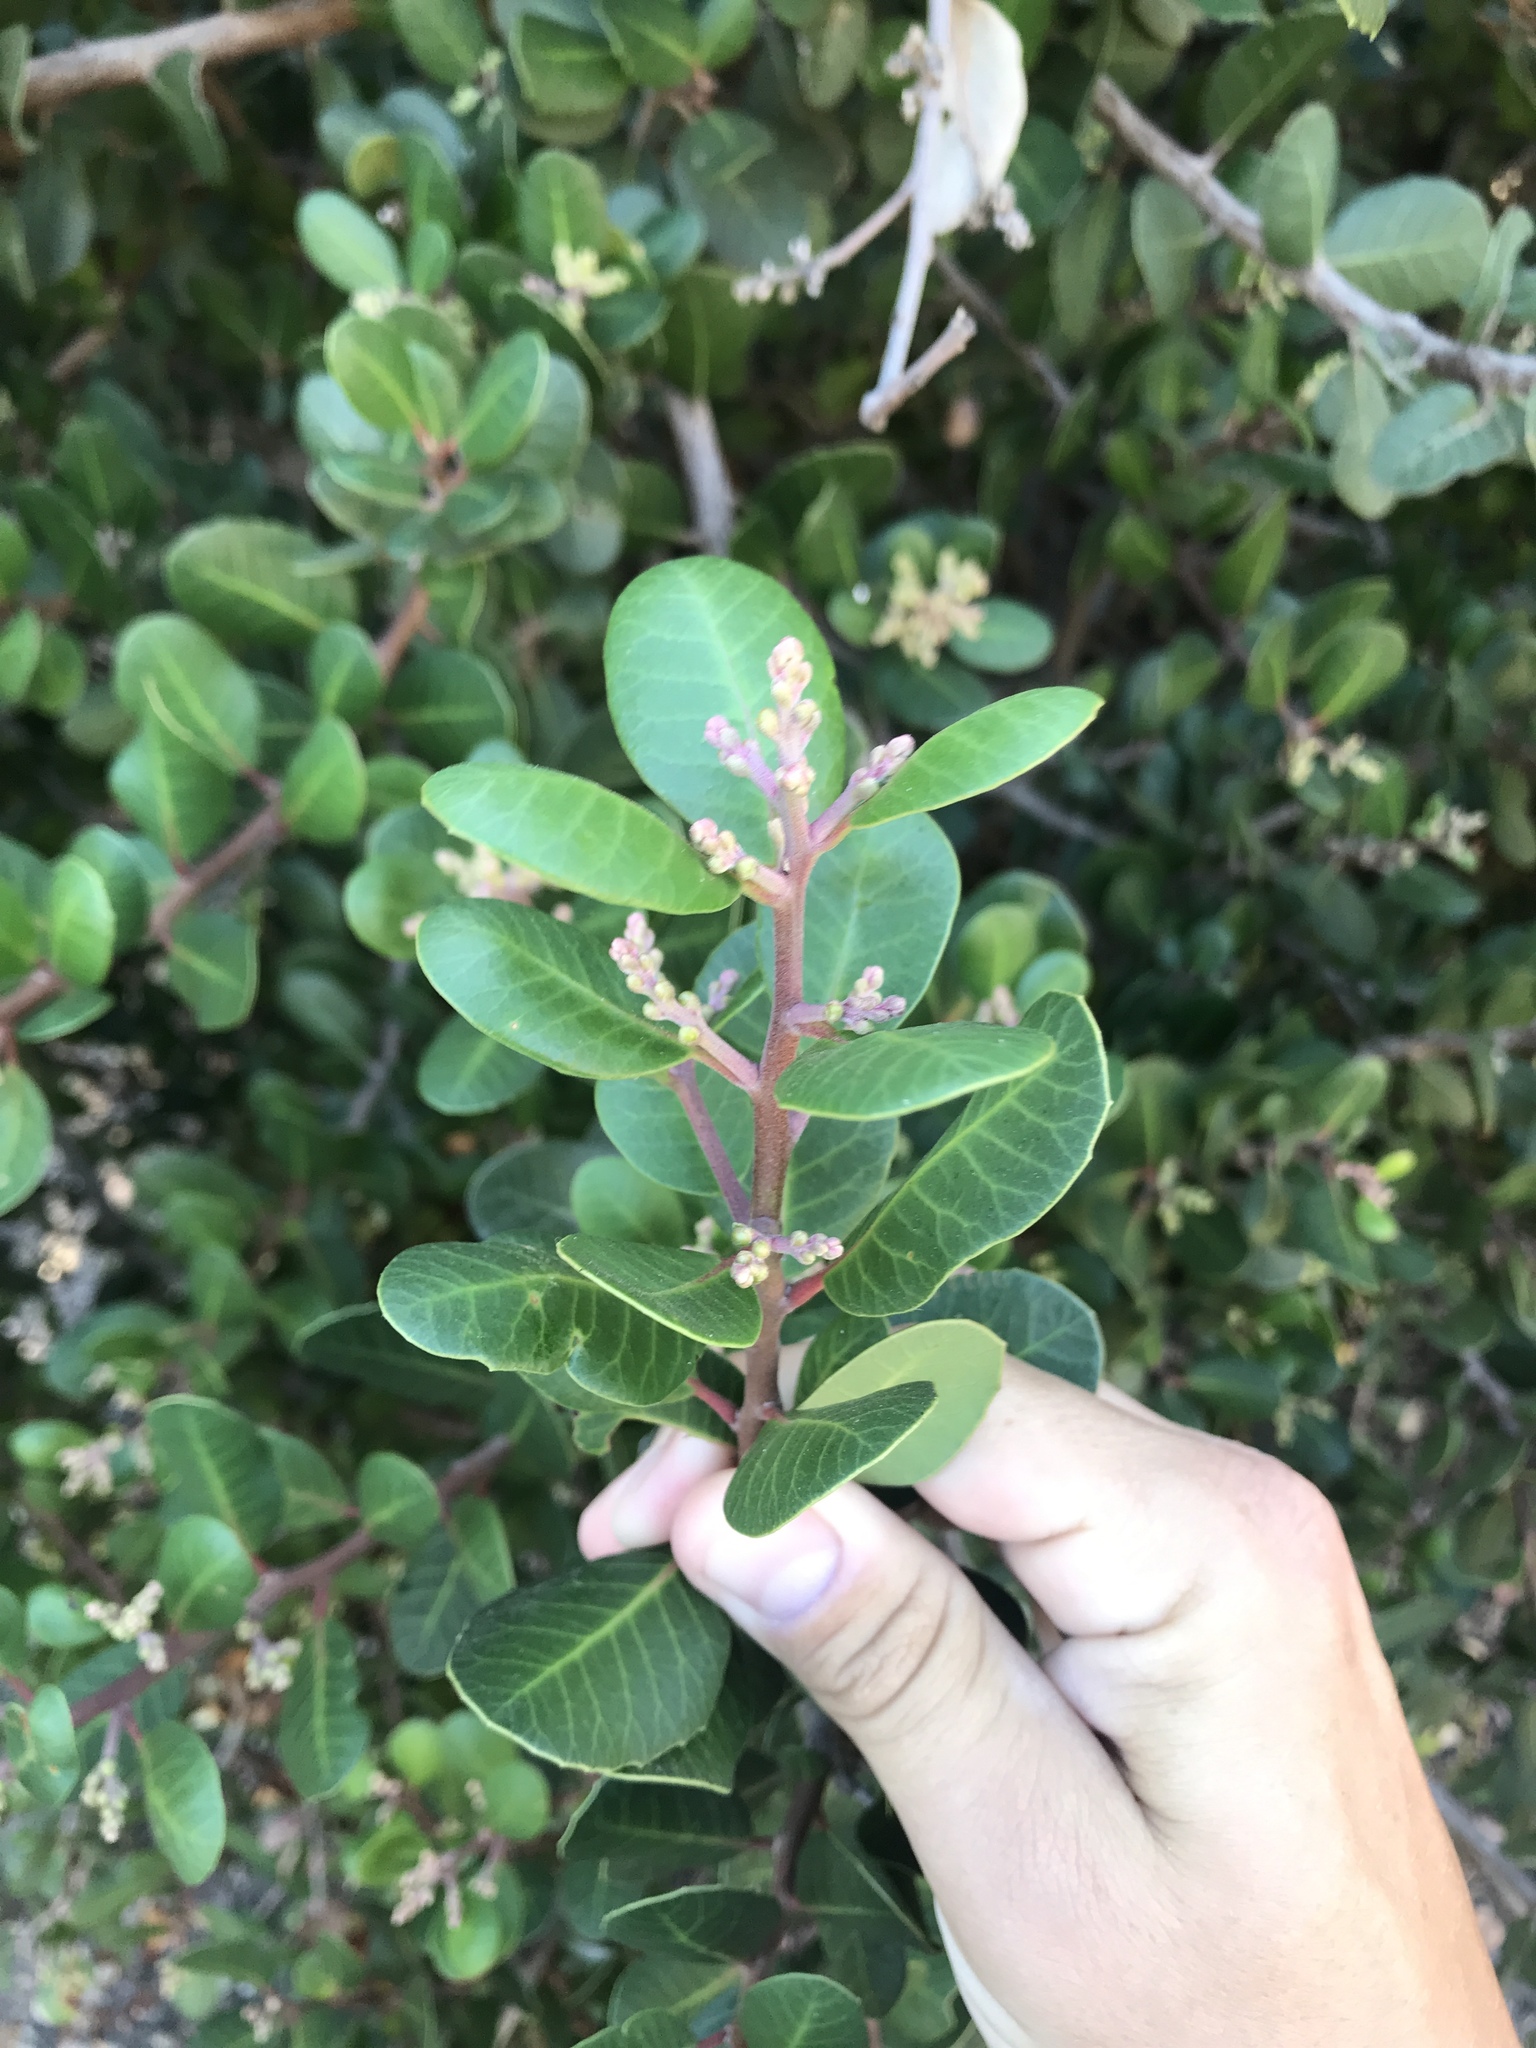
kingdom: Plantae
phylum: Tracheophyta
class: Magnoliopsida
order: Sapindales
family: Anacardiaceae
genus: Rhus
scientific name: Rhus integrifolia
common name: Lemonade sumac
